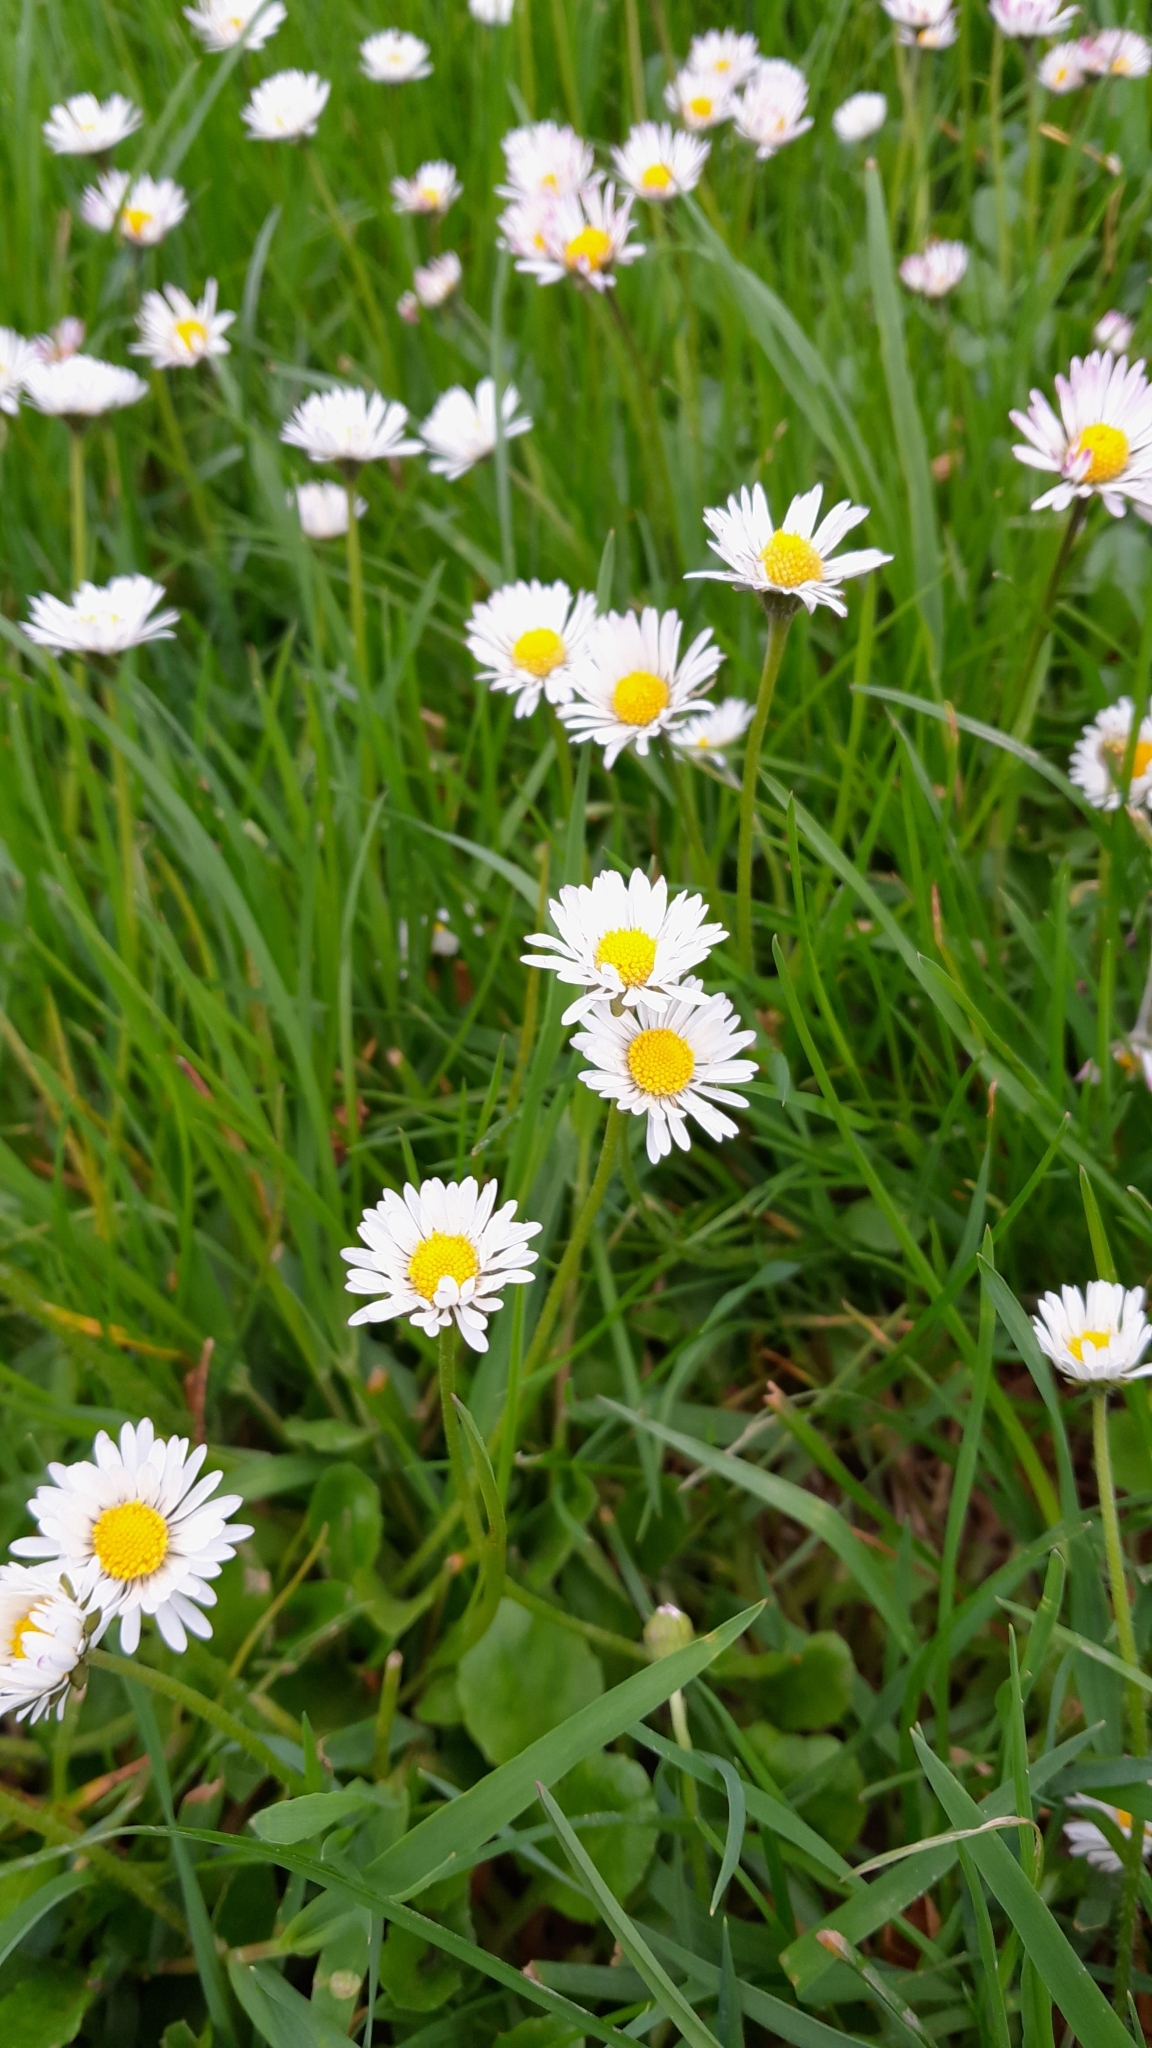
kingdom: Plantae
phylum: Tracheophyta
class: Magnoliopsida
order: Asterales
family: Asteraceae
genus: Bellis
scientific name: Bellis perennis
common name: Lawndaisy
